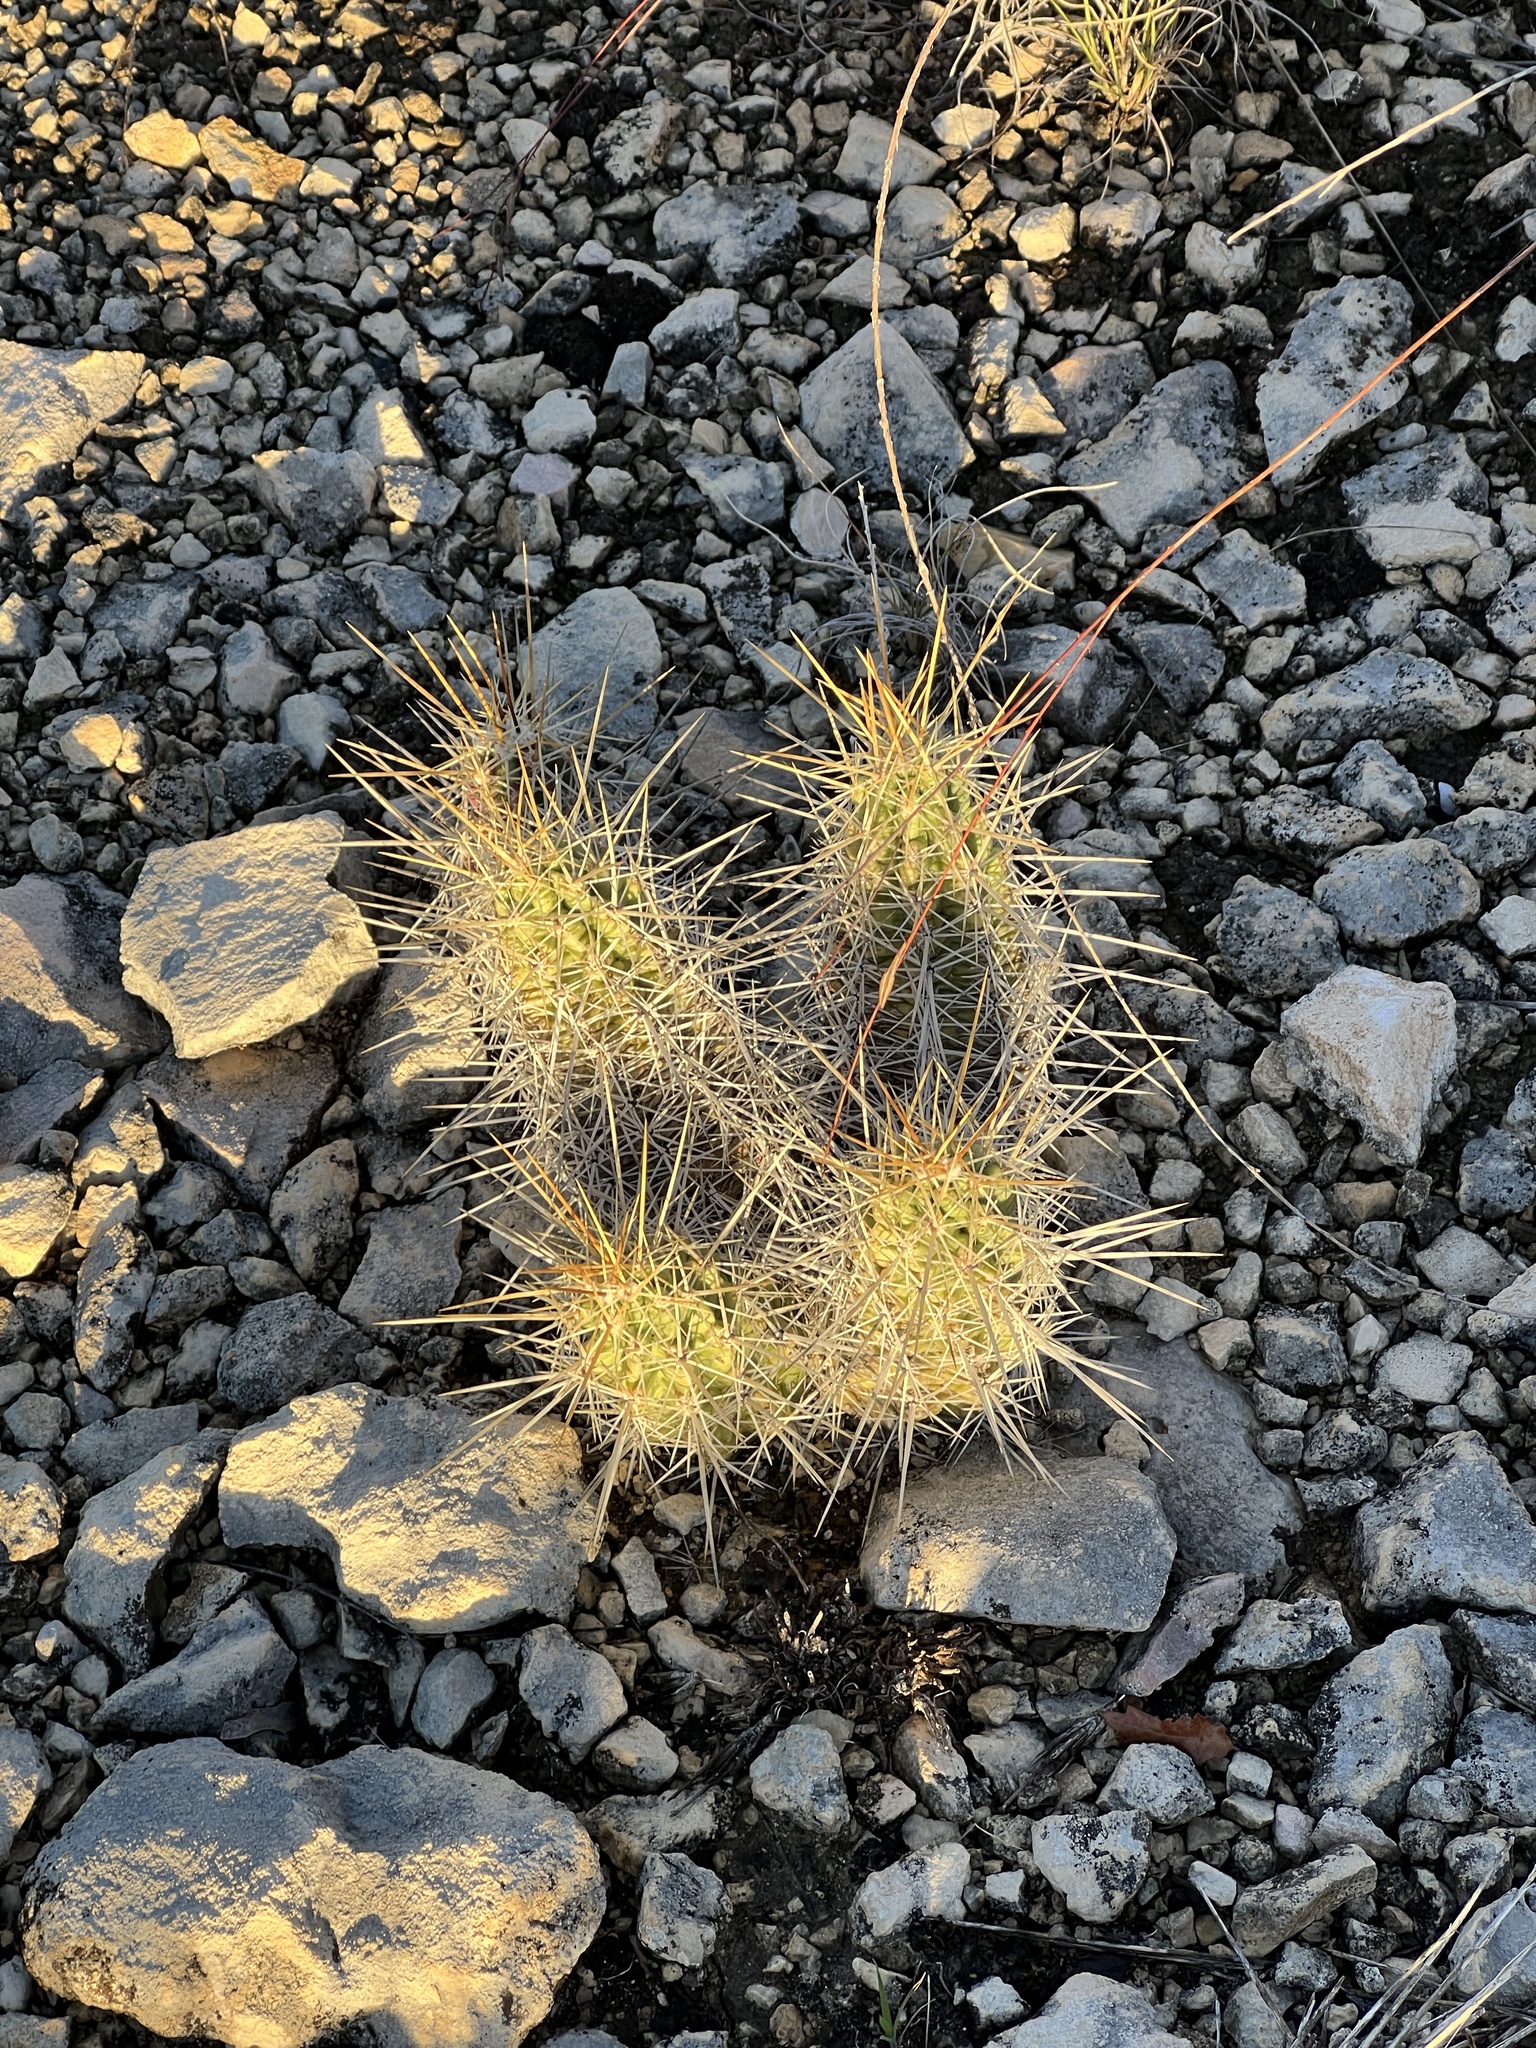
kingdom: Plantae
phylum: Tracheophyta
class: Magnoliopsida
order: Caryophyllales
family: Cactaceae
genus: Echinocereus
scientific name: Echinocereus enneacanthus
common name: Pitaya
